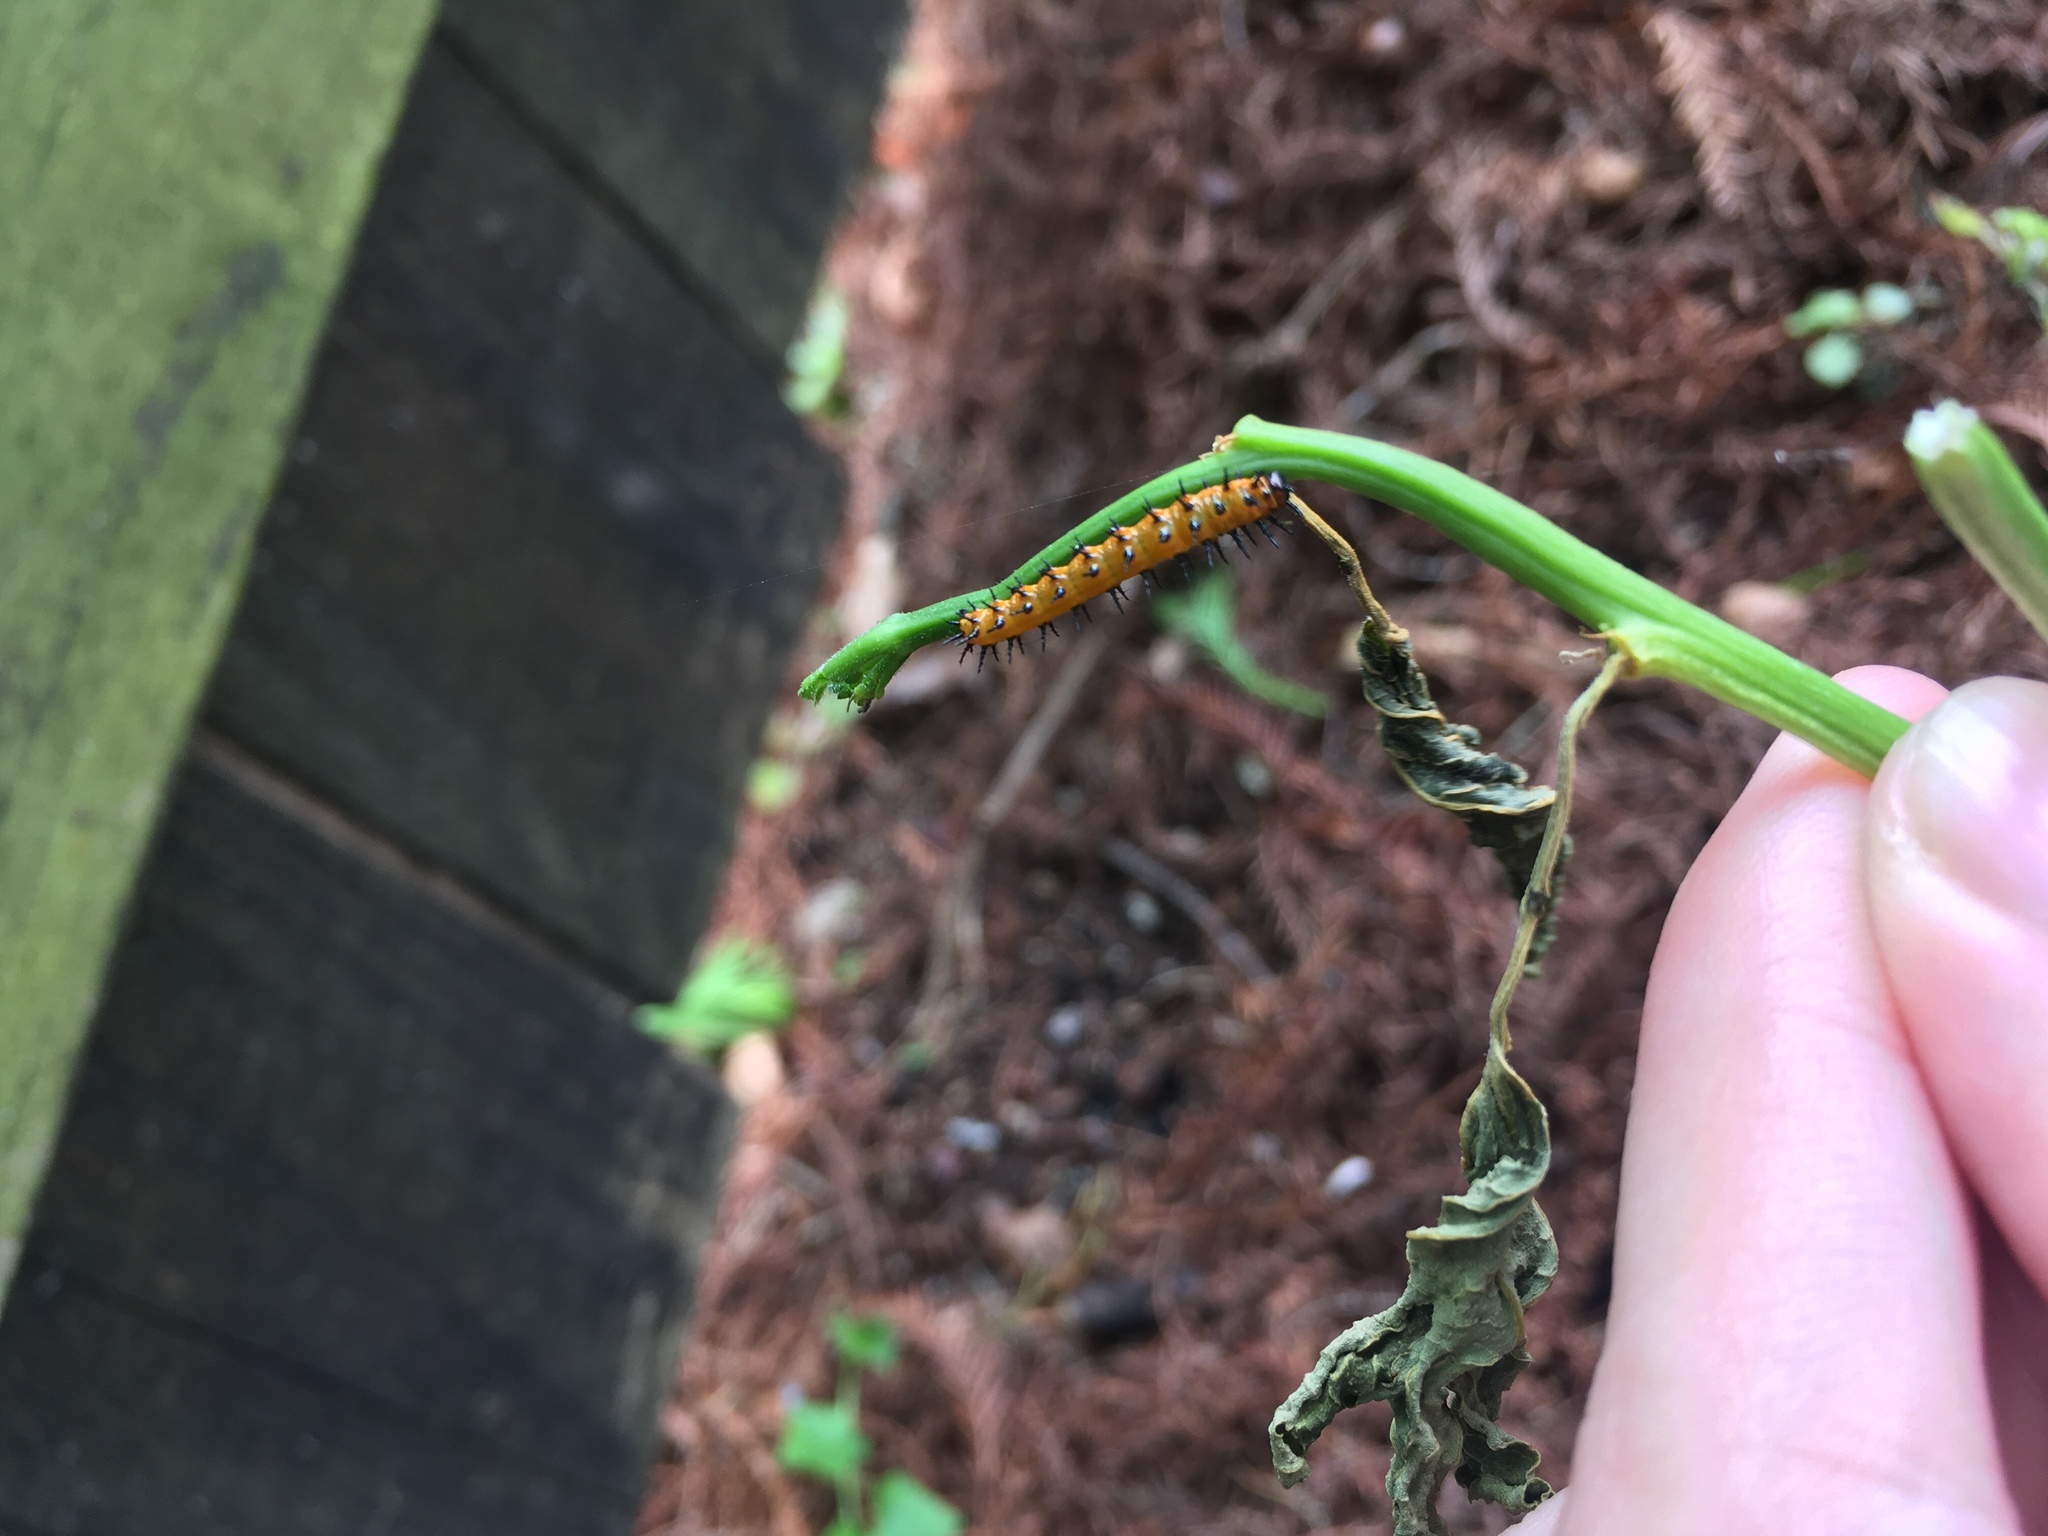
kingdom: Animalia
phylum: Arthropoda
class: Insecta
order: Lepidoptera
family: Nymphalidae
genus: Dione
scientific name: Dione vanillae
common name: Gulf fritillary
